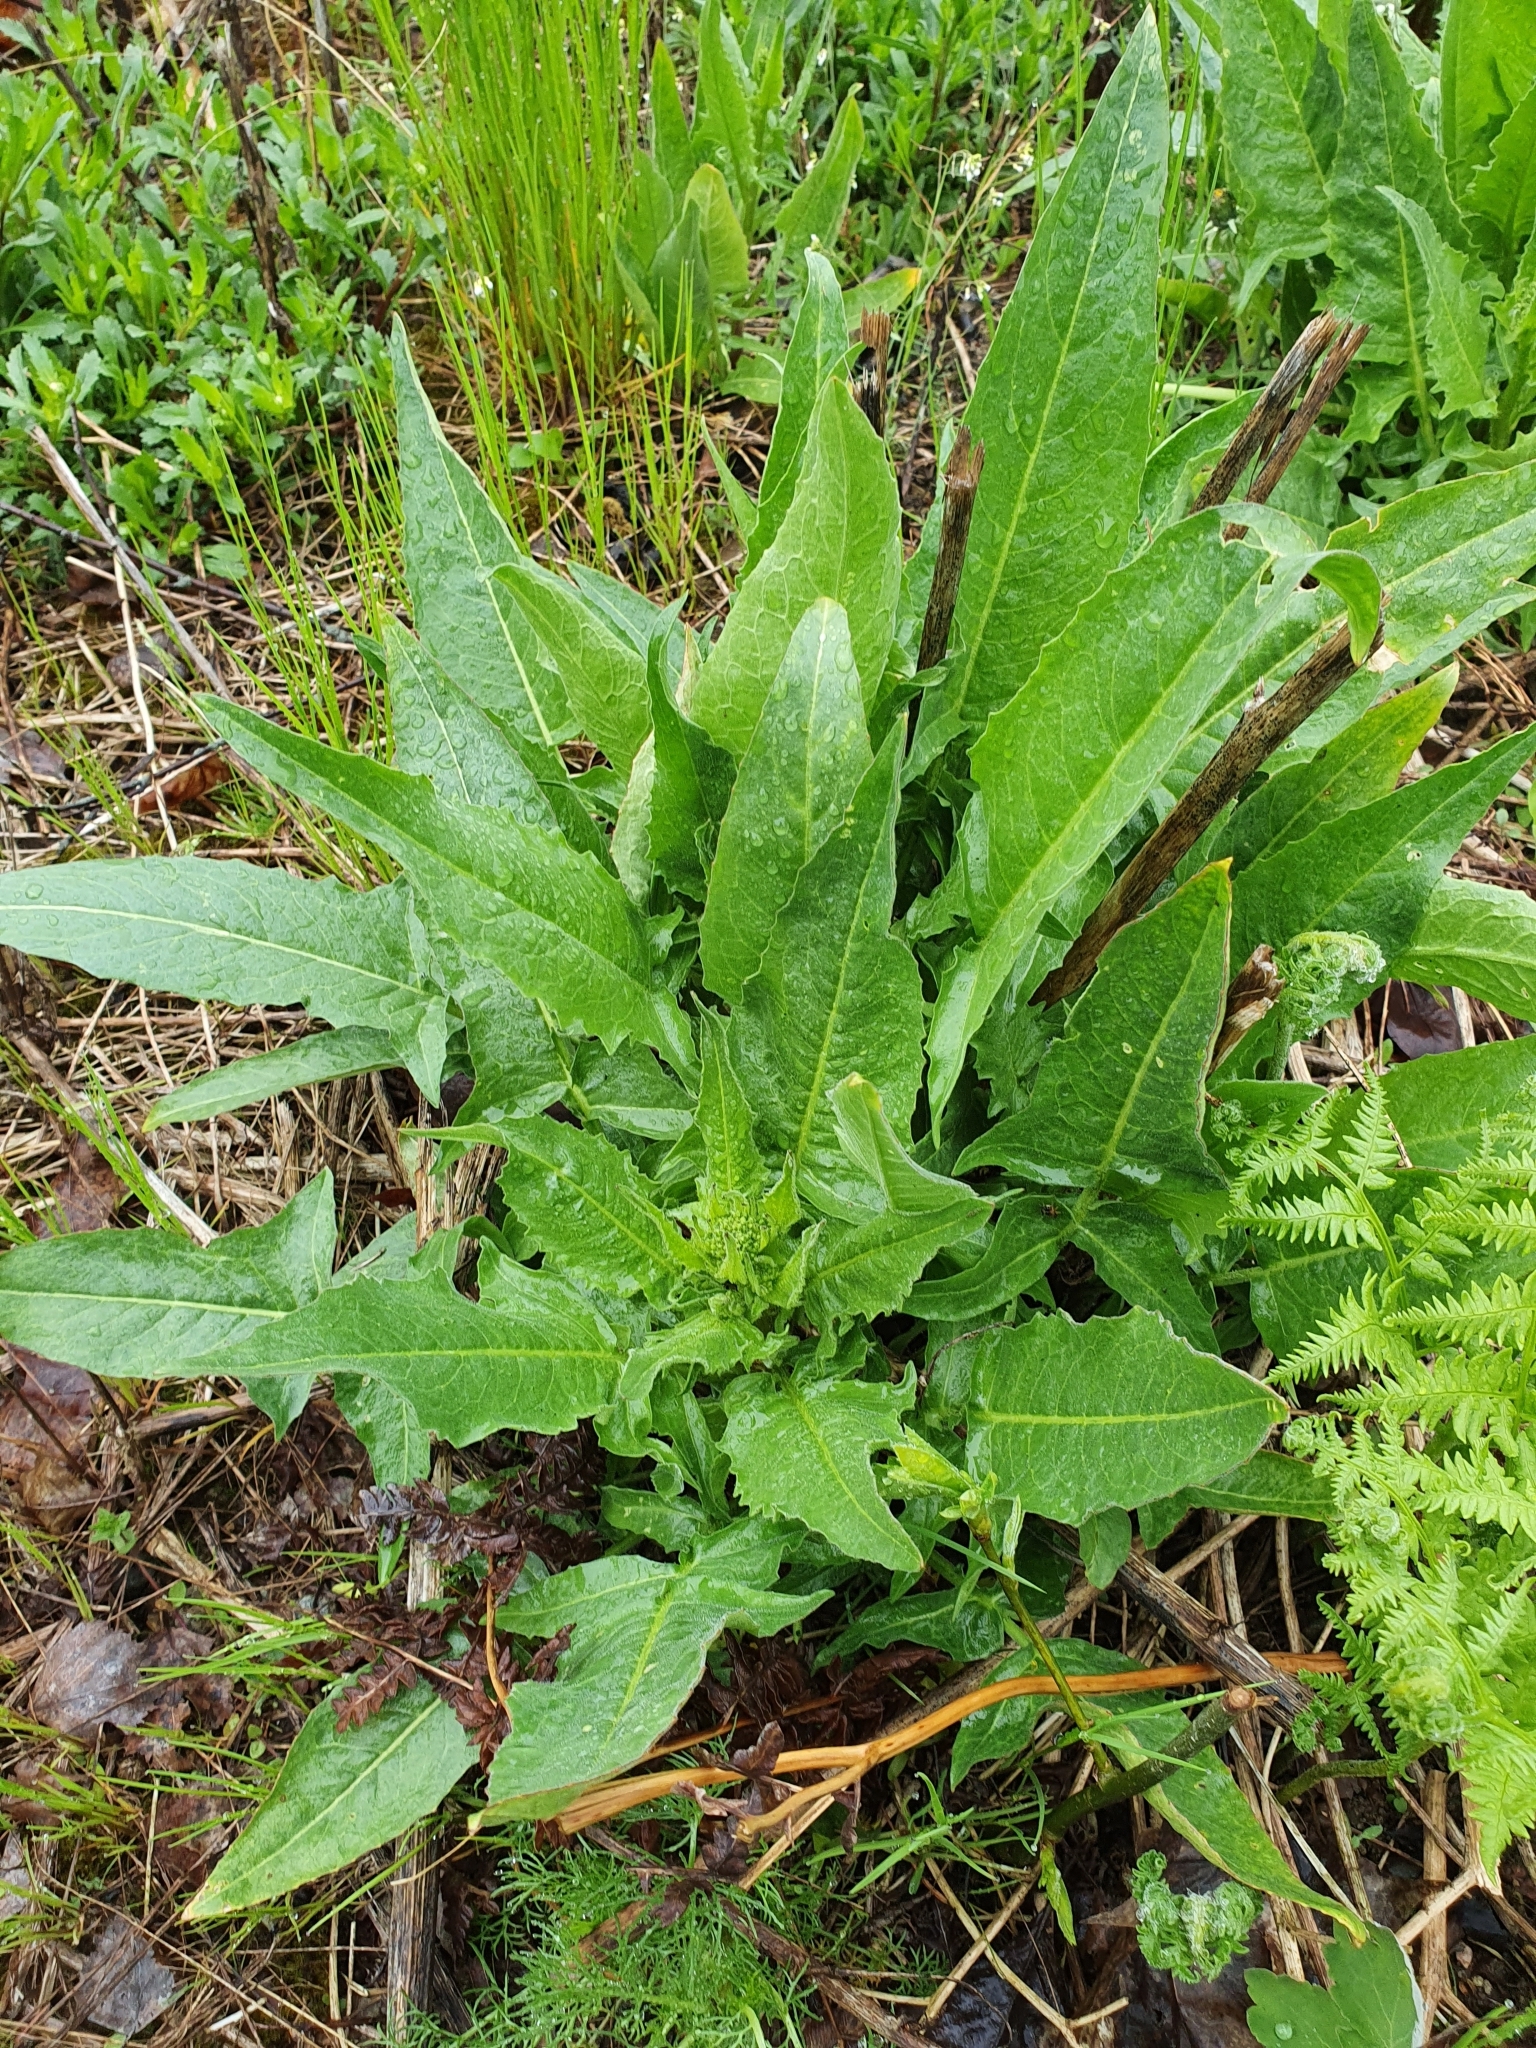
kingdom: Plantae
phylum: Tracheophyta
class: Magnoliopsida
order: Brassicales
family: Brassicaceae
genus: Bunias
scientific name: Bunias orientalis
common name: Warty-cabbage
